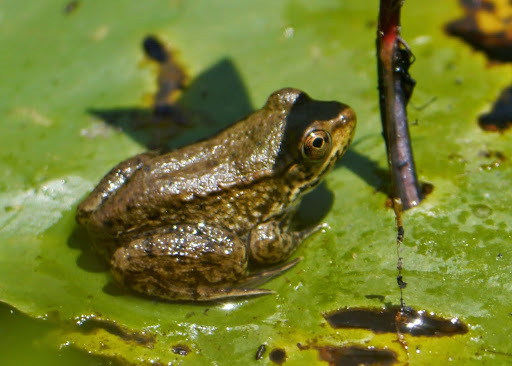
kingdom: Animalia
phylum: Chordata
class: Amphibia
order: Anura
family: Ranidae
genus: Lithobates
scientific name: Lithobates clamitans
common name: Green frog
